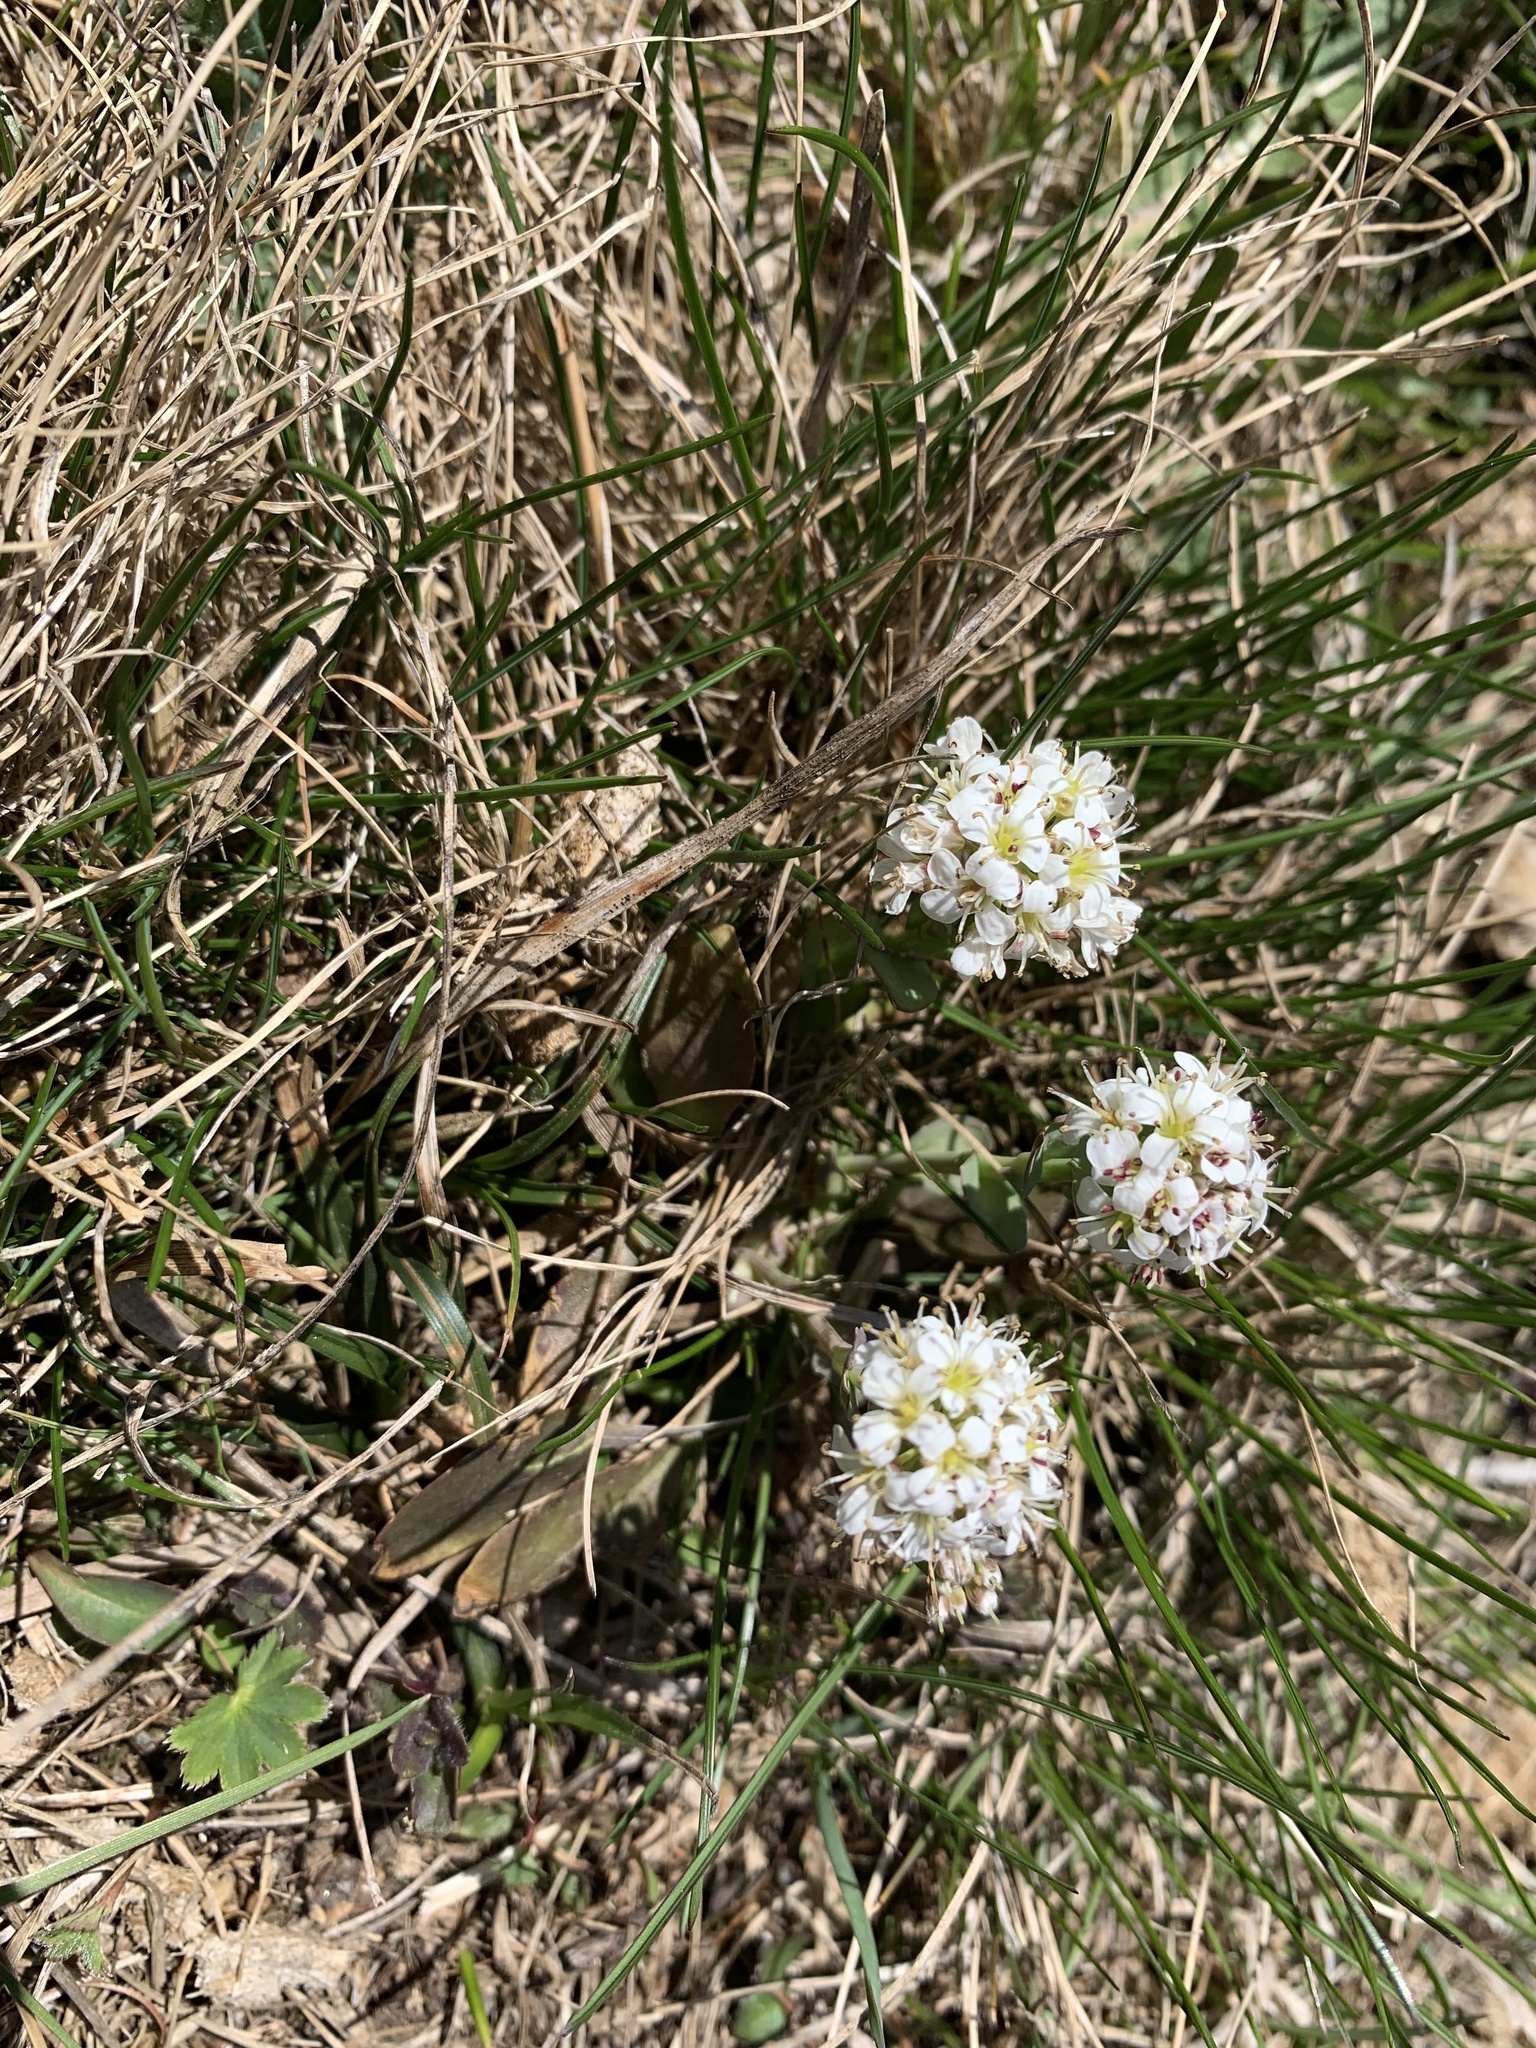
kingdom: Plantae
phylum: Tracheophyta
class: Magnoliopsida
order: Brassicales
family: Brassicaceae
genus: Noccaea
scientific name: Noccaea caerulescens
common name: Alpine pennycress
